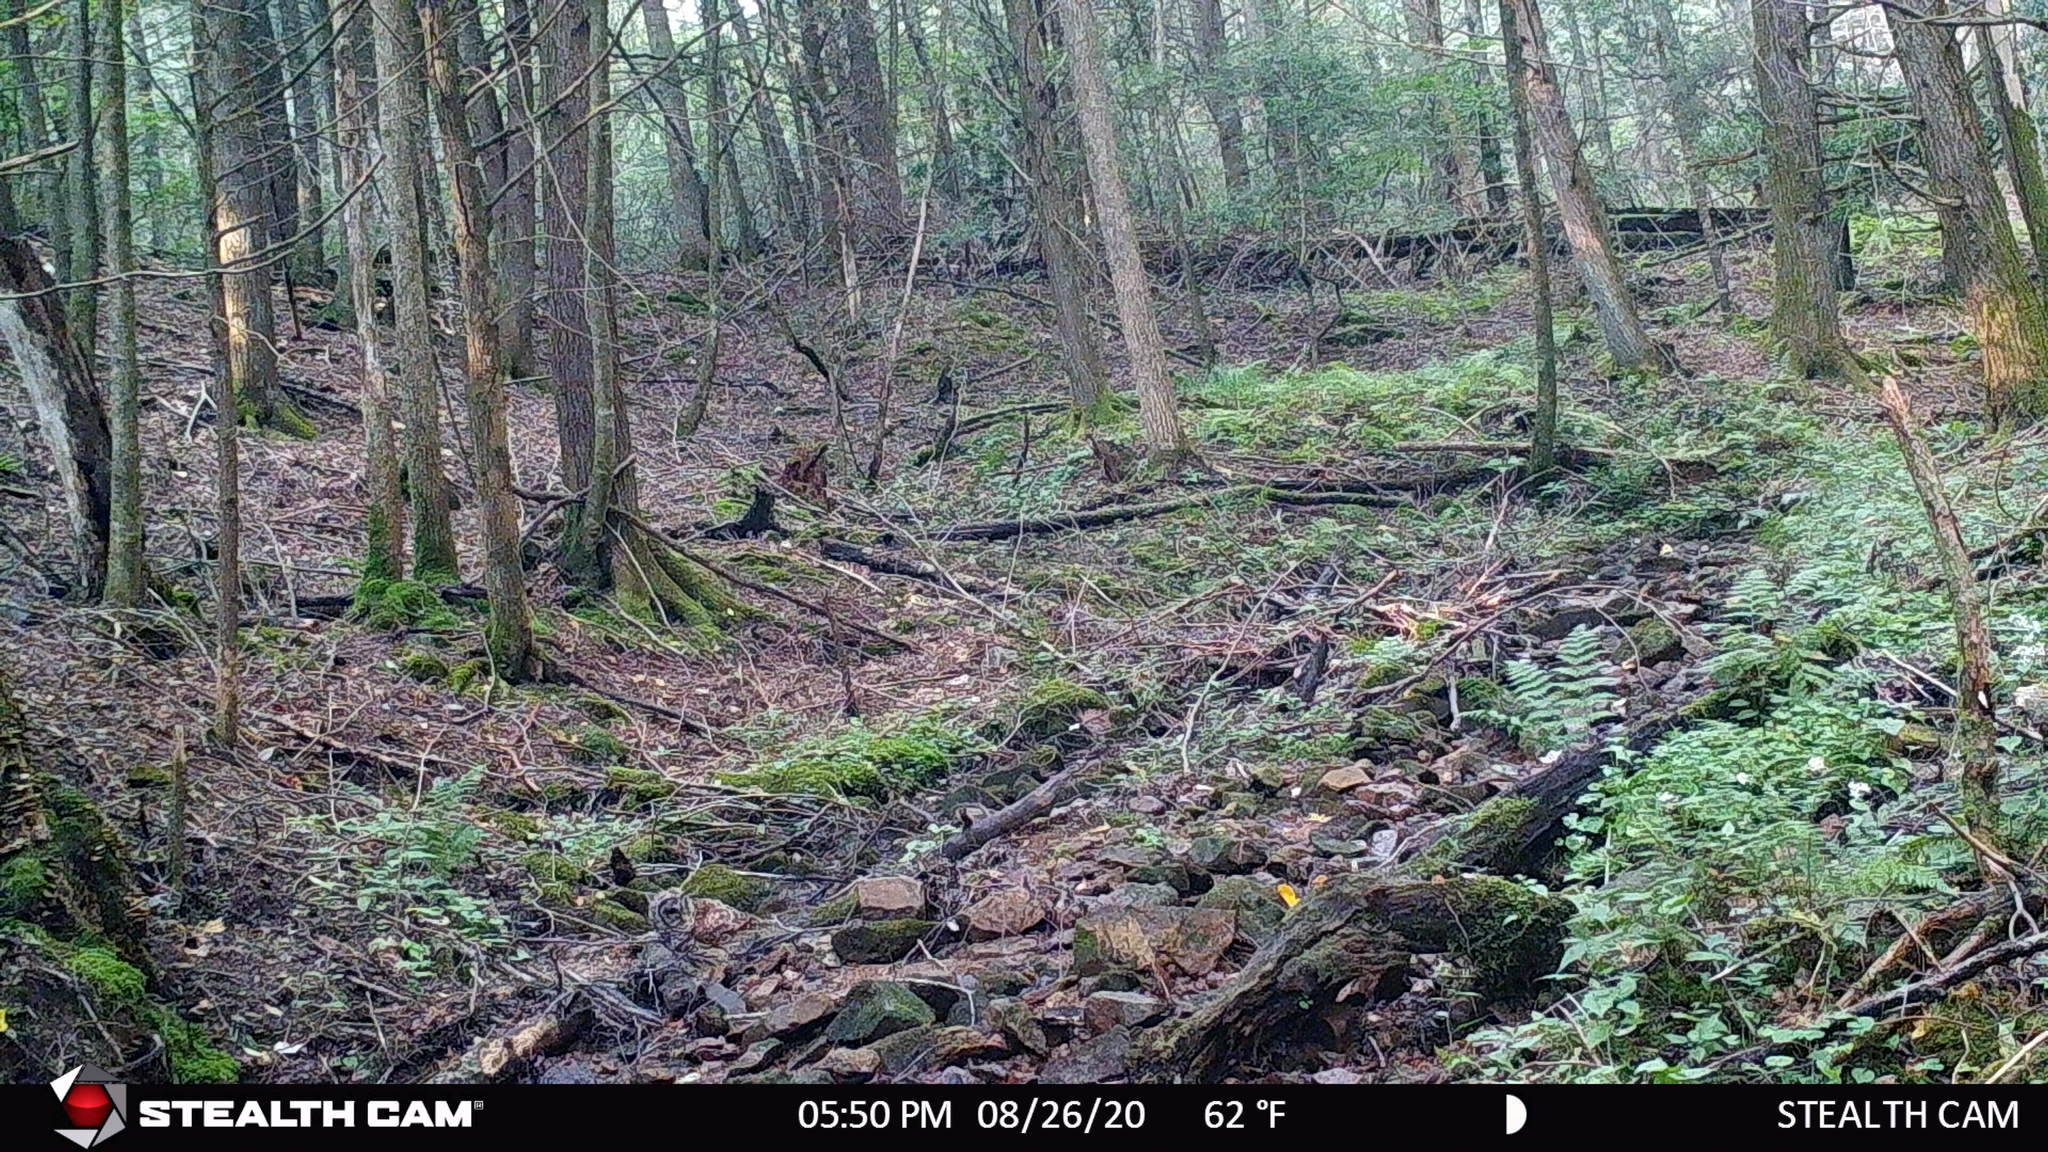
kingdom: Animalia
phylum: Chordata
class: Aves
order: Strigiformes
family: Strigidae
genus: Strix
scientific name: Strix varia
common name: Barred owl
